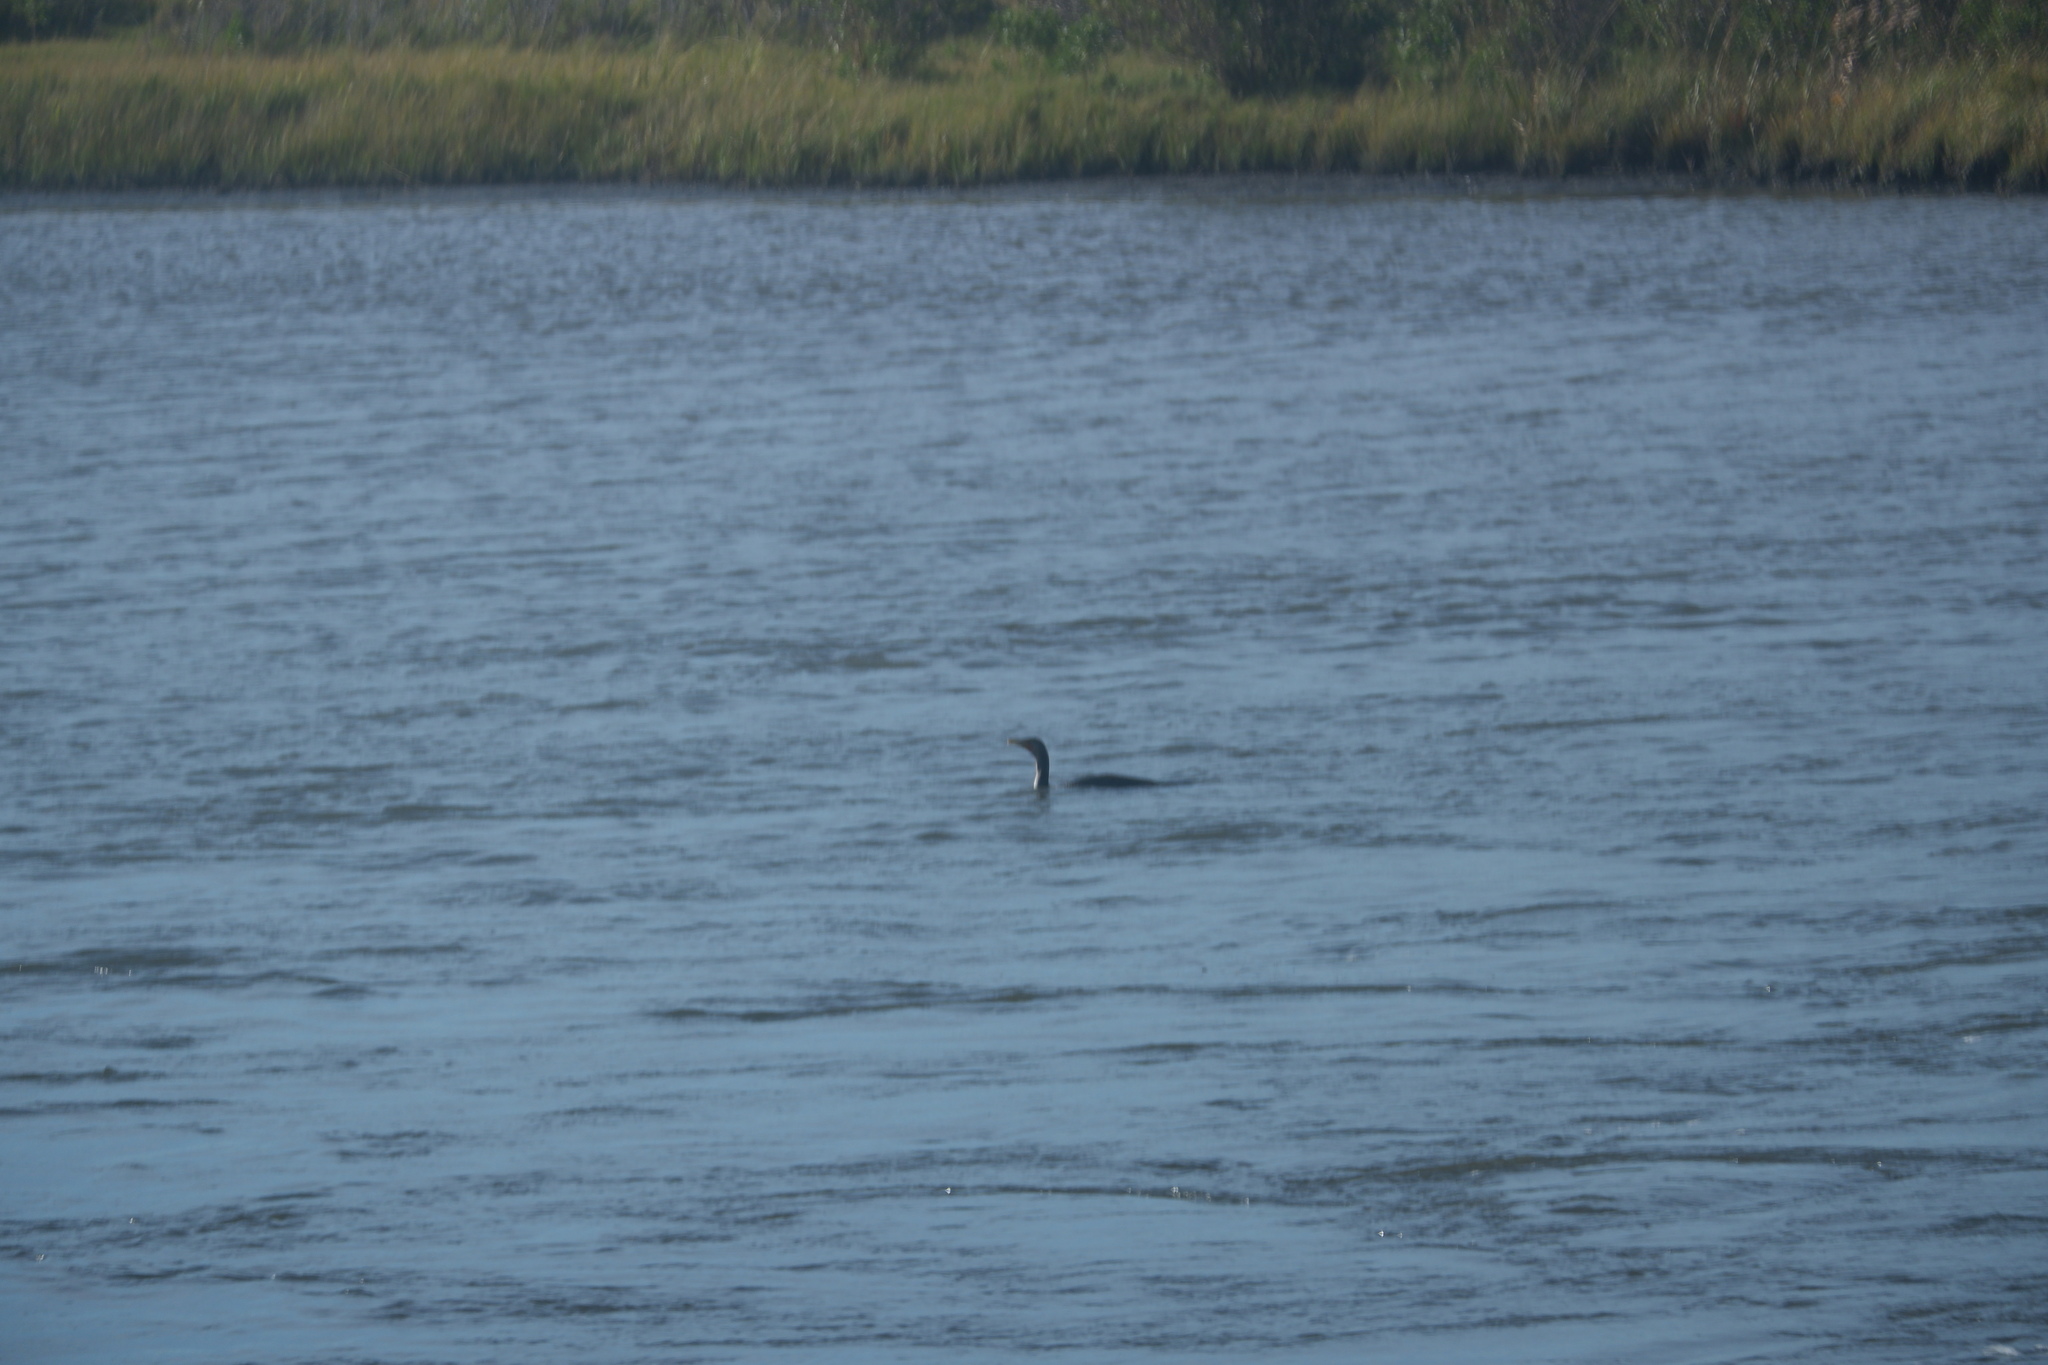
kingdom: Animalia
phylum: Chordata
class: Aves
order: Suliformes
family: Phalacrocoracidae
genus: Phalacrocorax
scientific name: Phalacrocorax auritus
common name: Double-crested cormorant
